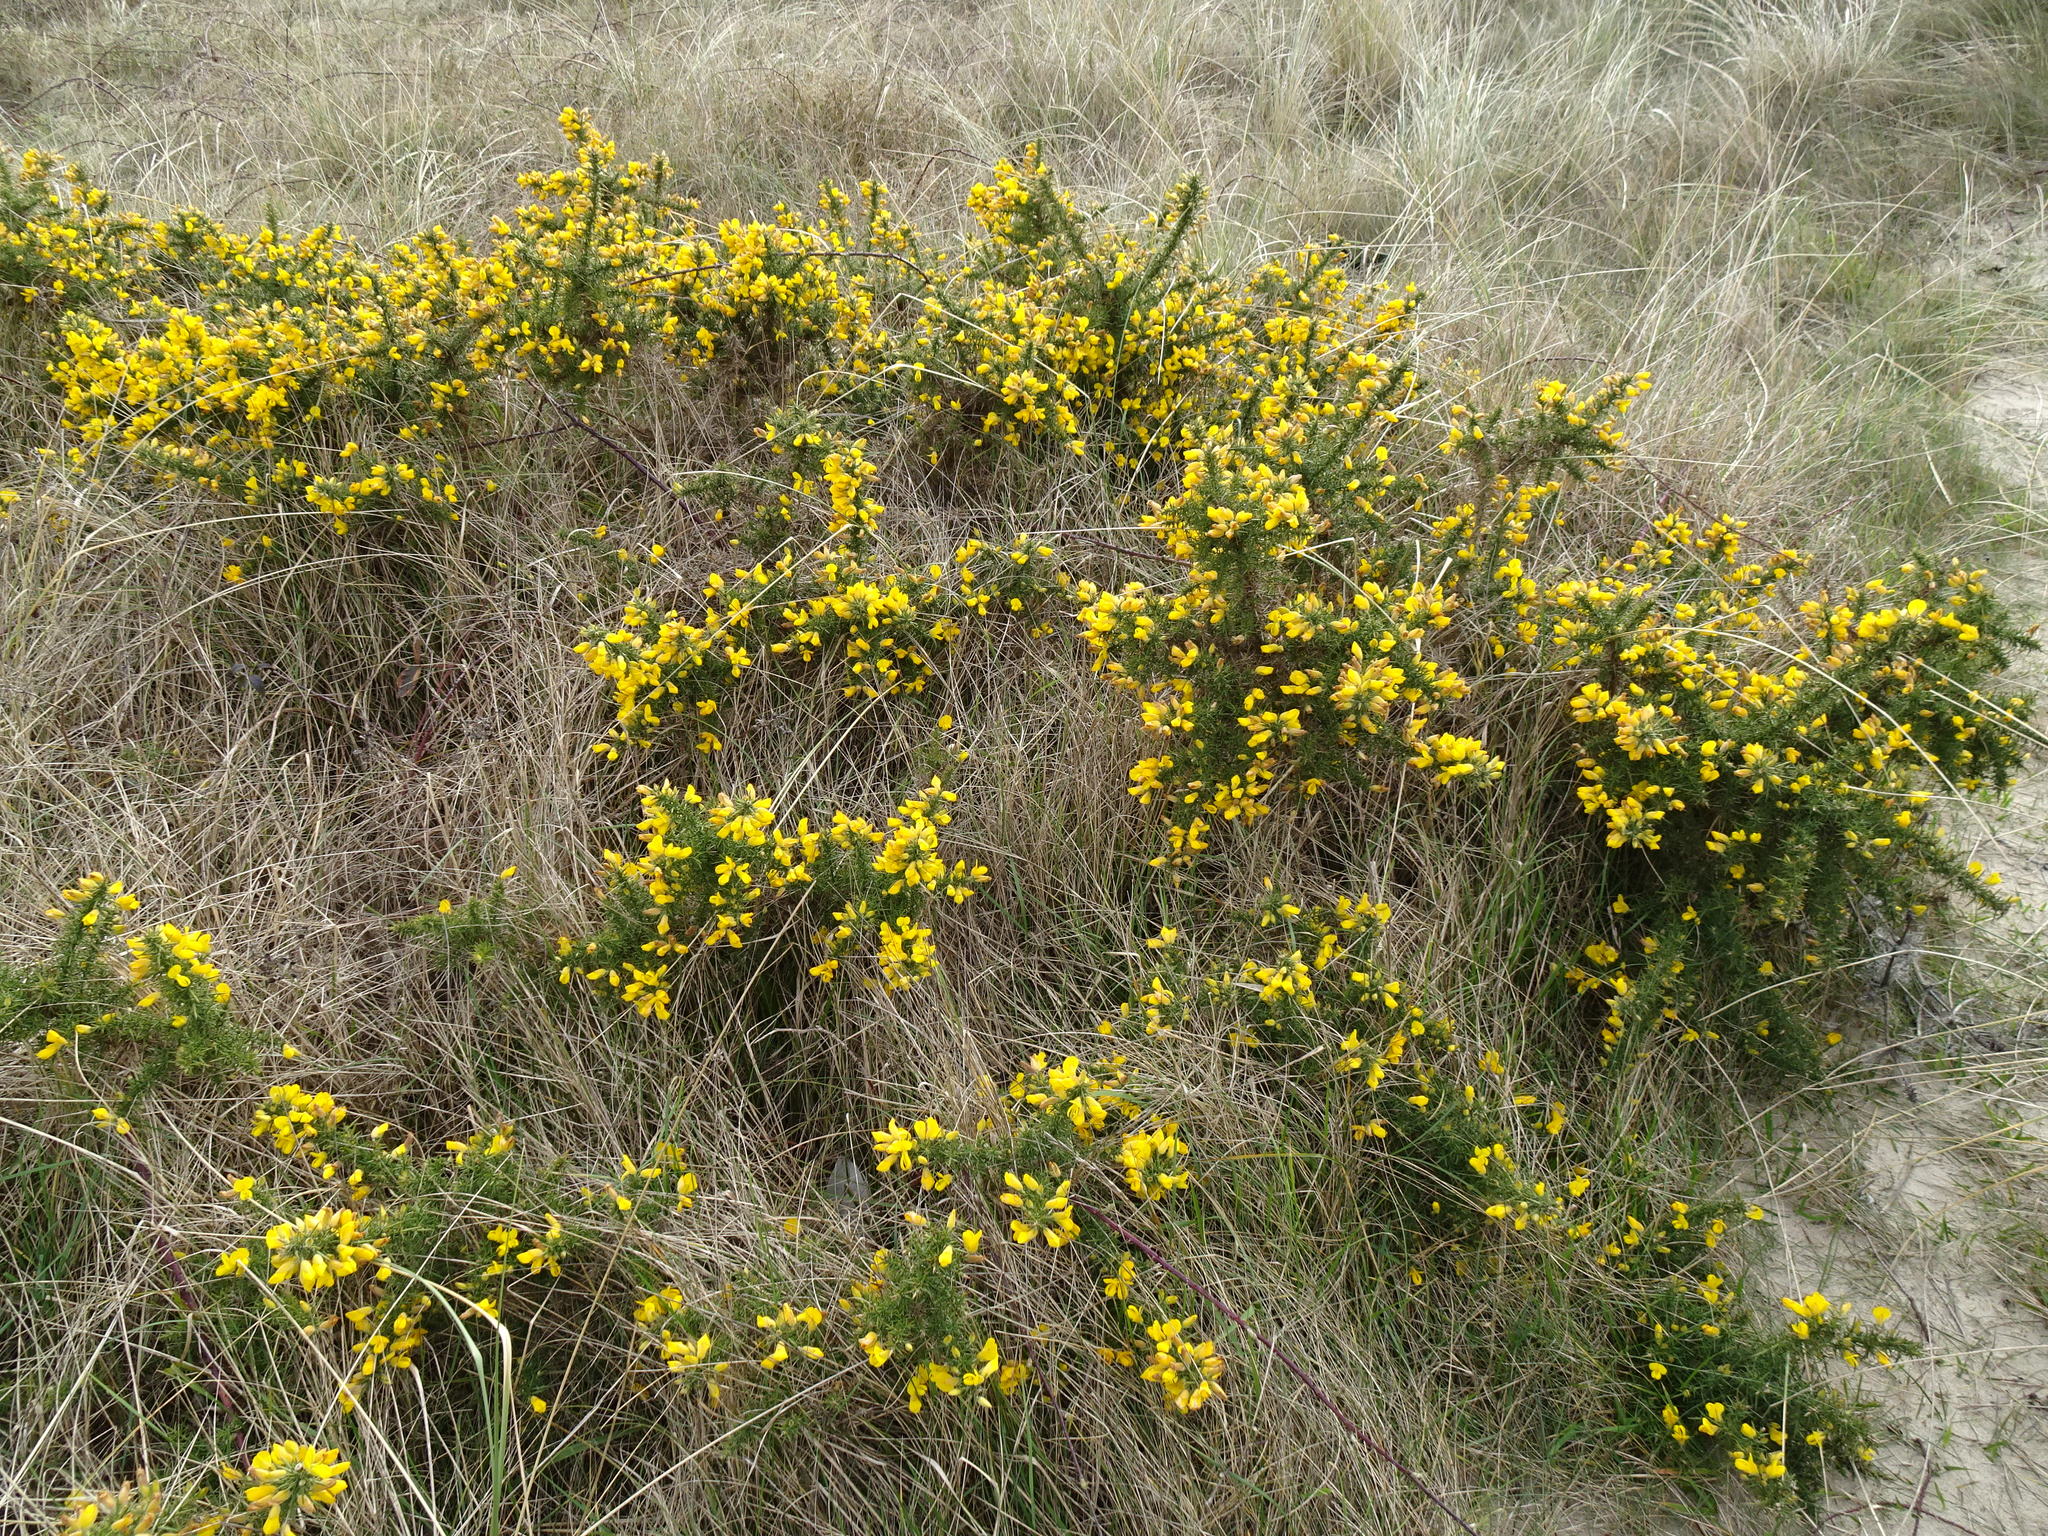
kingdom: Plantae
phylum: Tracheophyta
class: Magnoliopsida
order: Fabales
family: Fabaceae
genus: Ulex
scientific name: Ulex europaeus
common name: Common gorse
